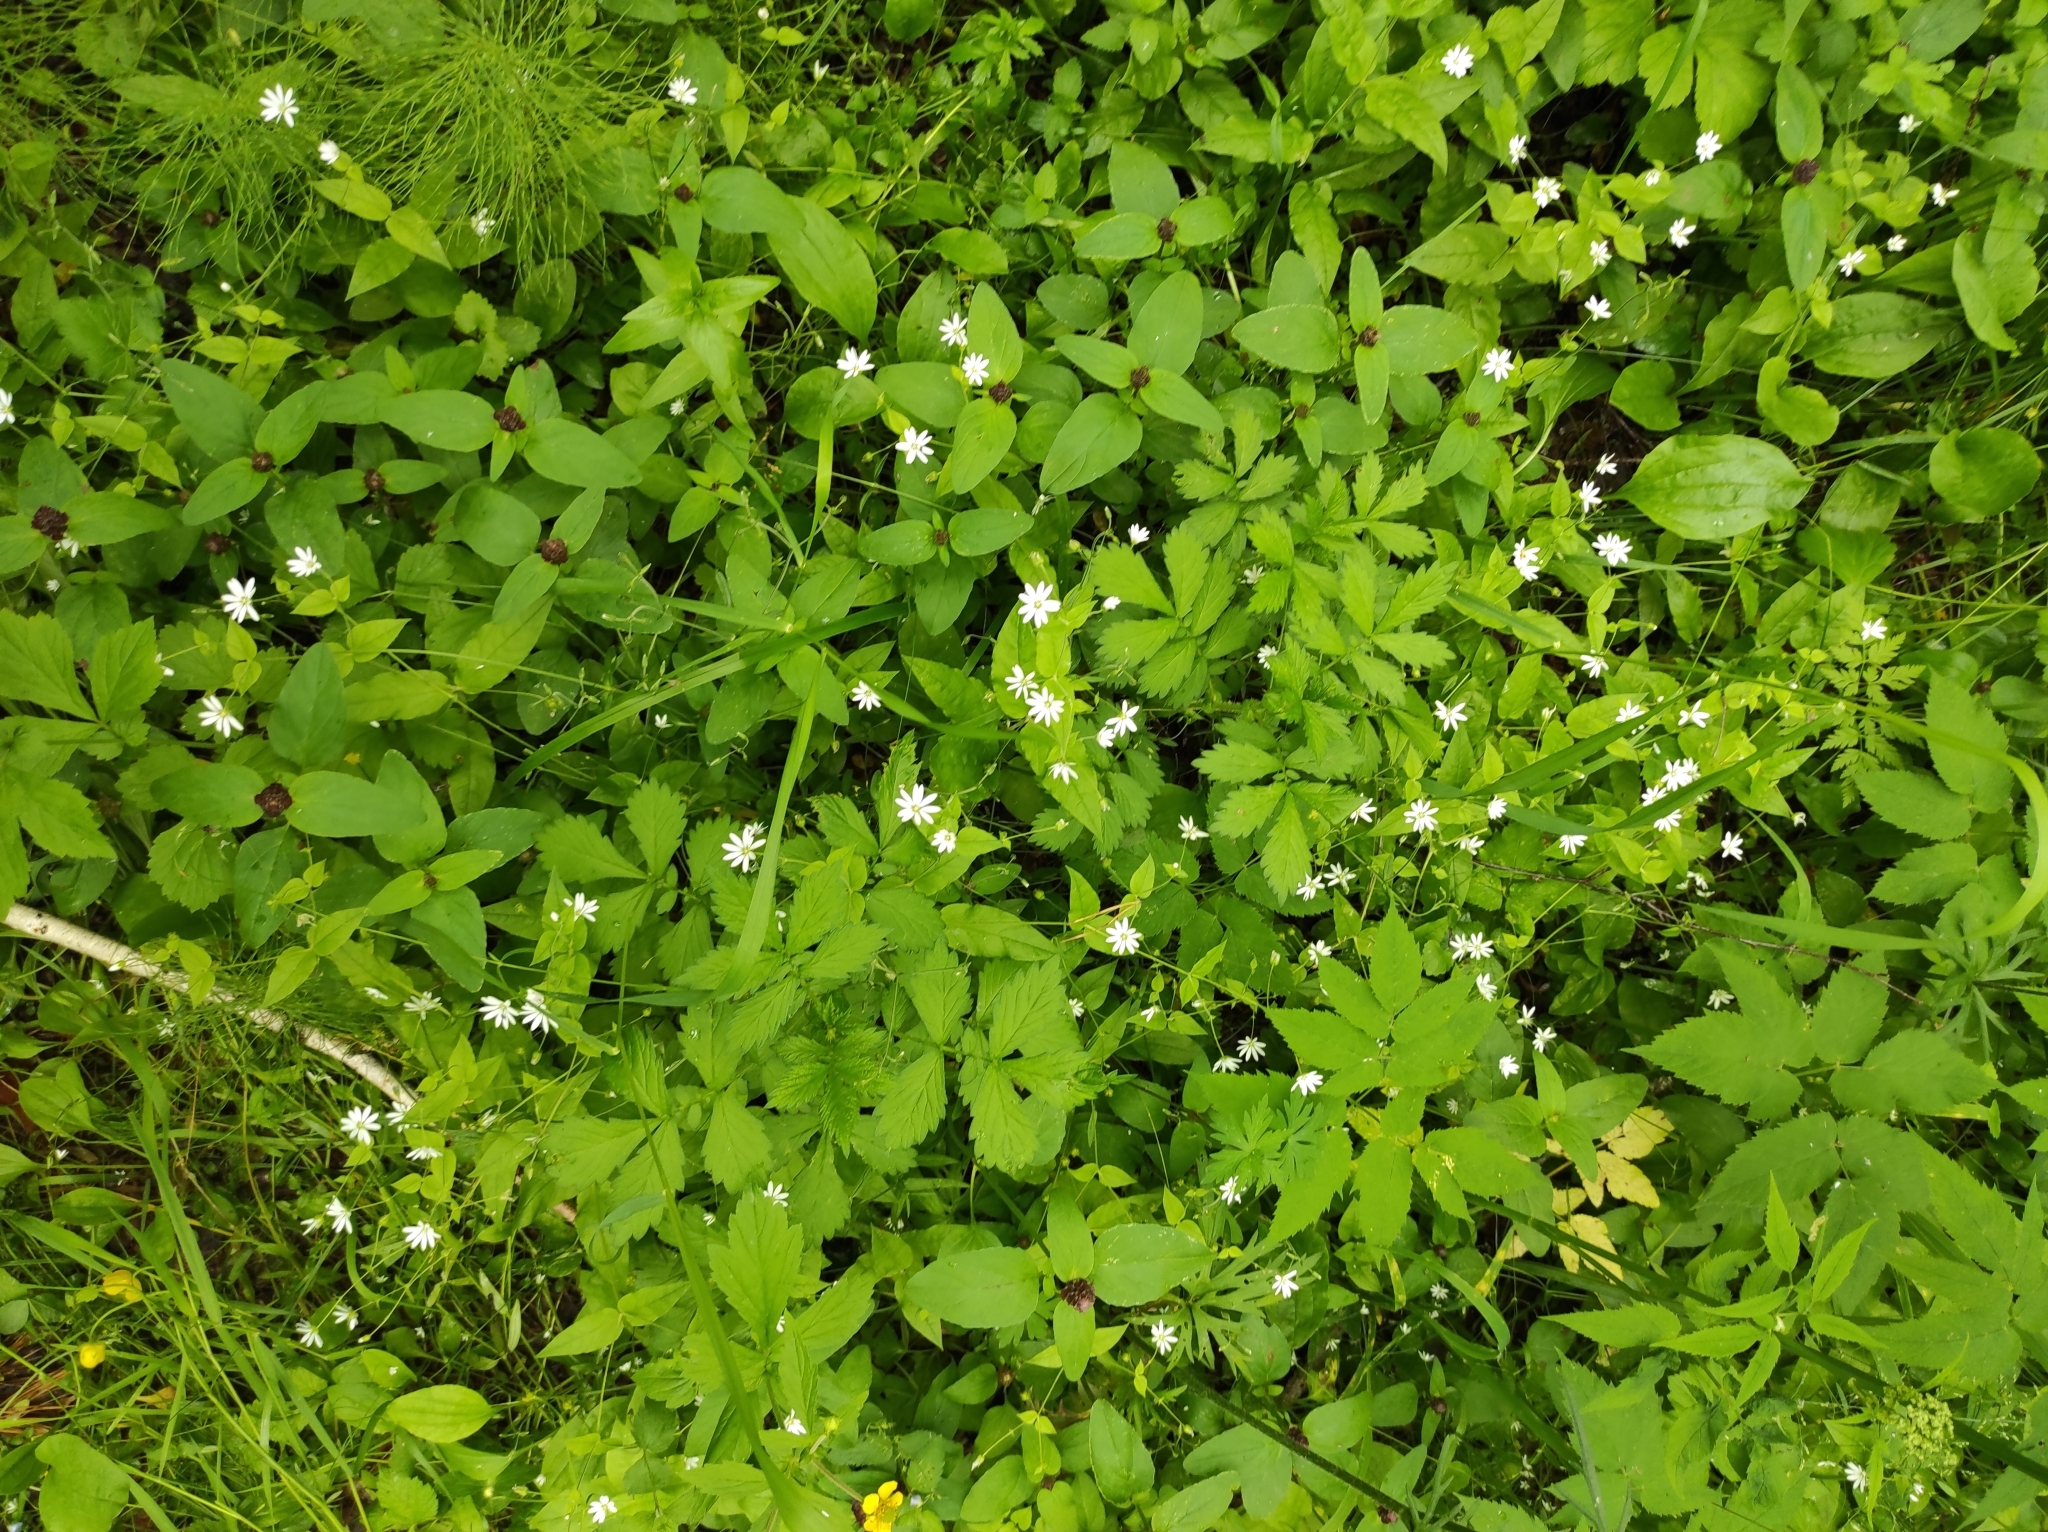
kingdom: Plantae
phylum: Tracheophyta
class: Magnoliopsida
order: Caryophyllales
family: Caryophyllaceae
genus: Stellaria
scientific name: Stellaria bungeana
